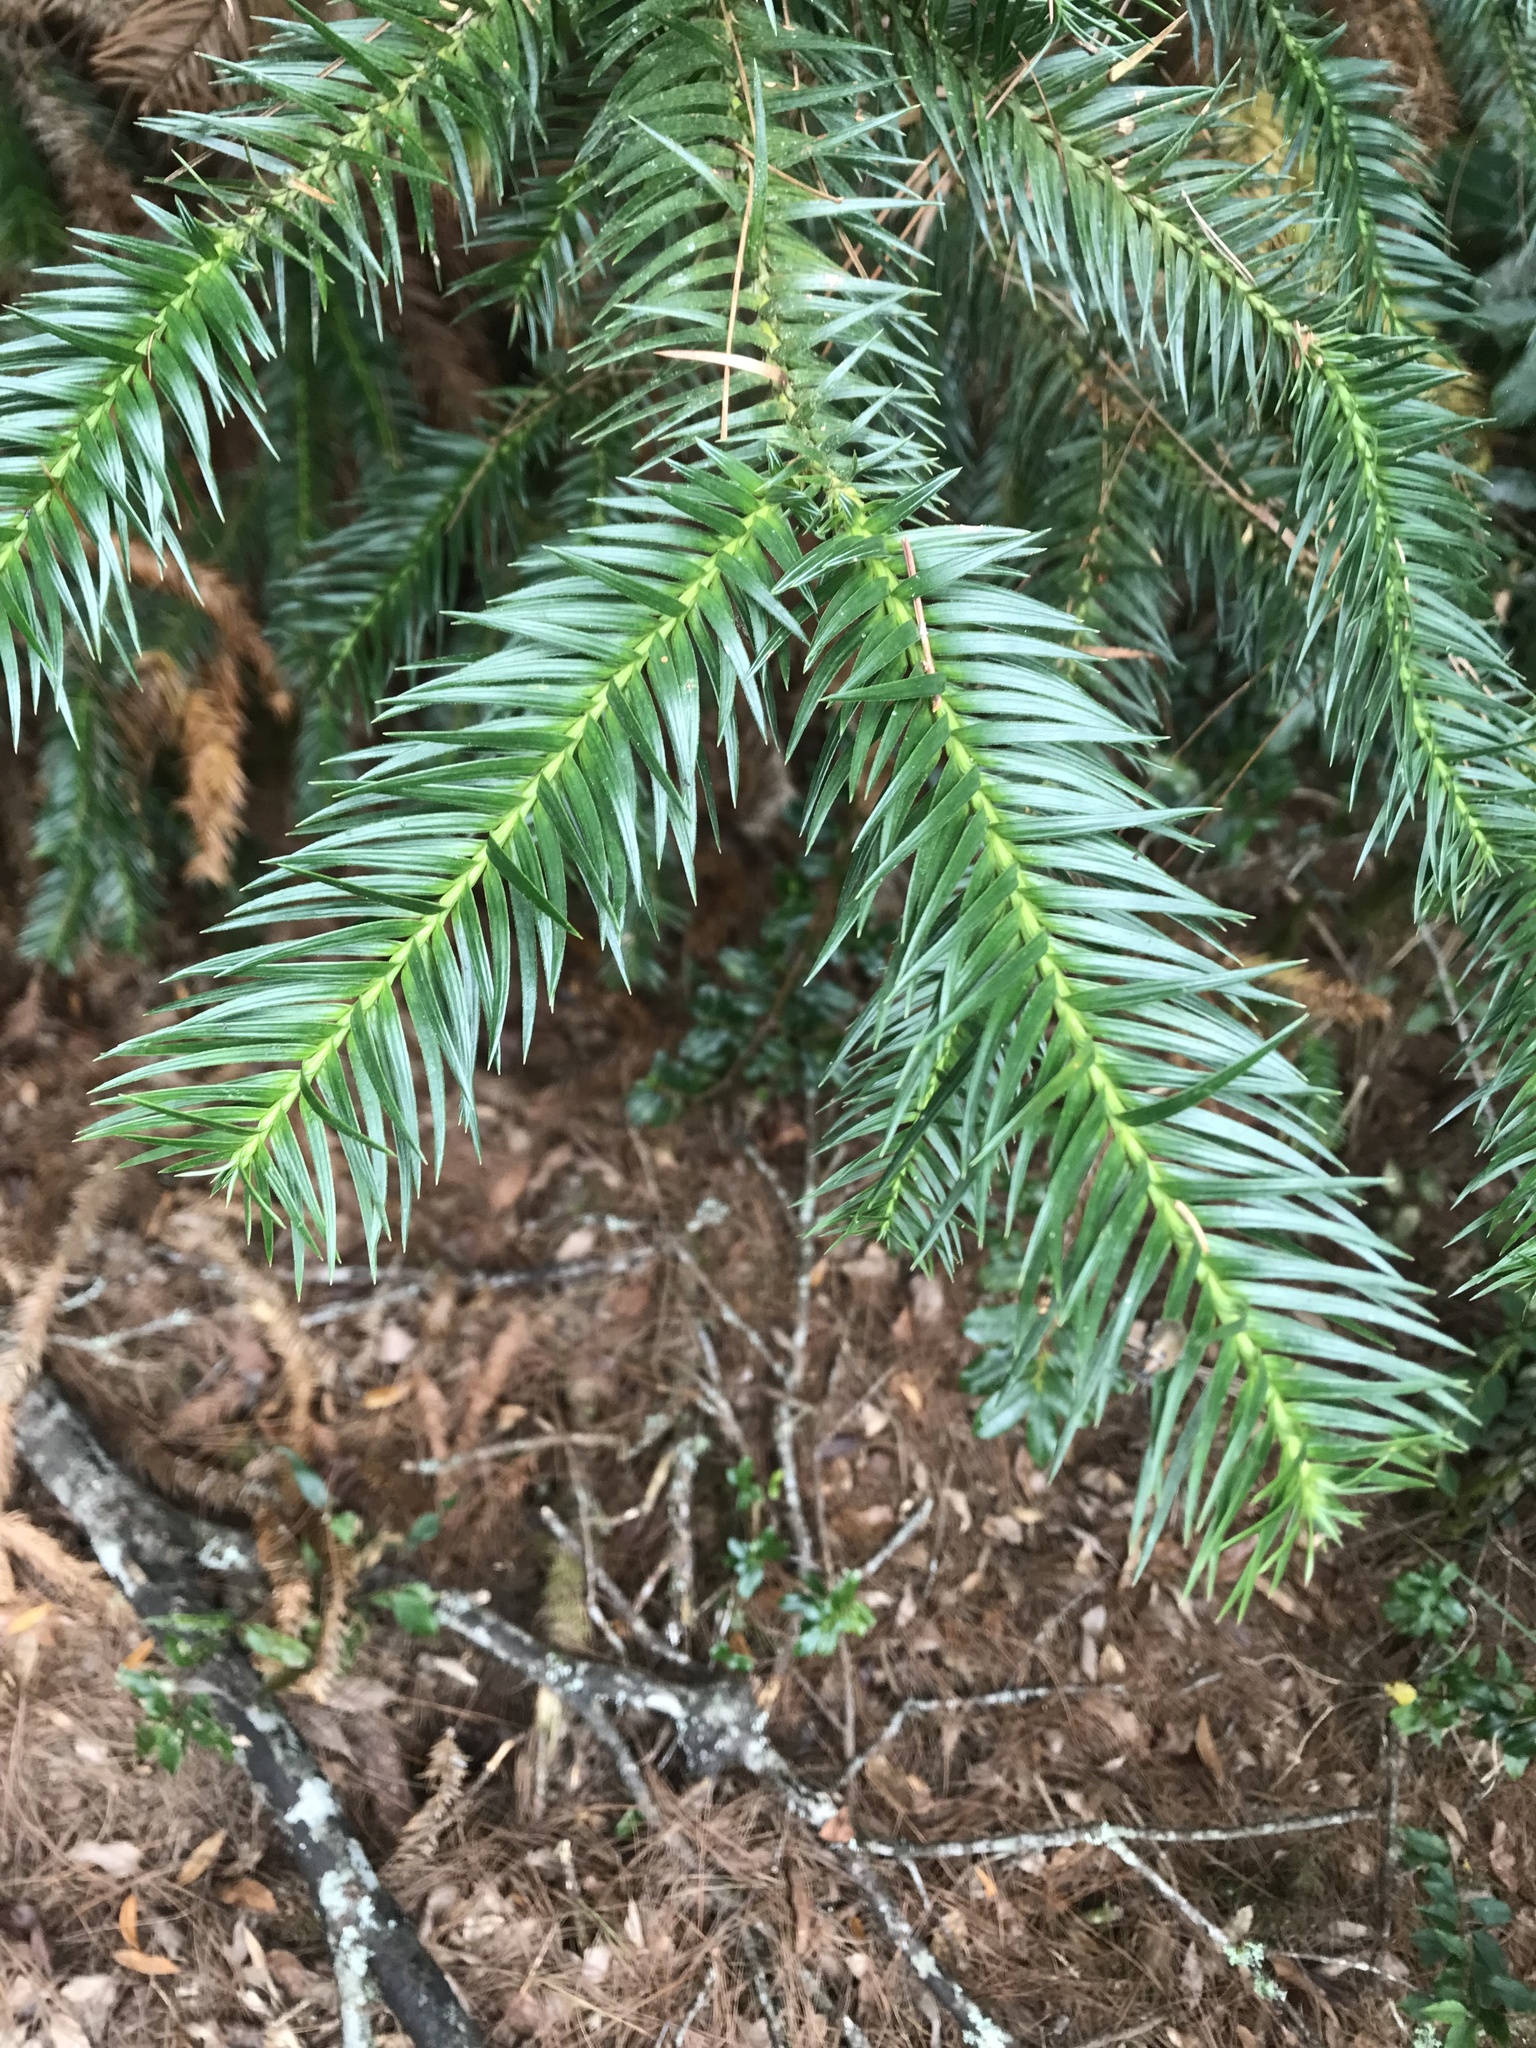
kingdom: Plantae
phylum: Tracheophyta
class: Pinopsida
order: Pinales
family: Cupressaceae
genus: Cunninghamia
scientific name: Cunninghamia konishii
